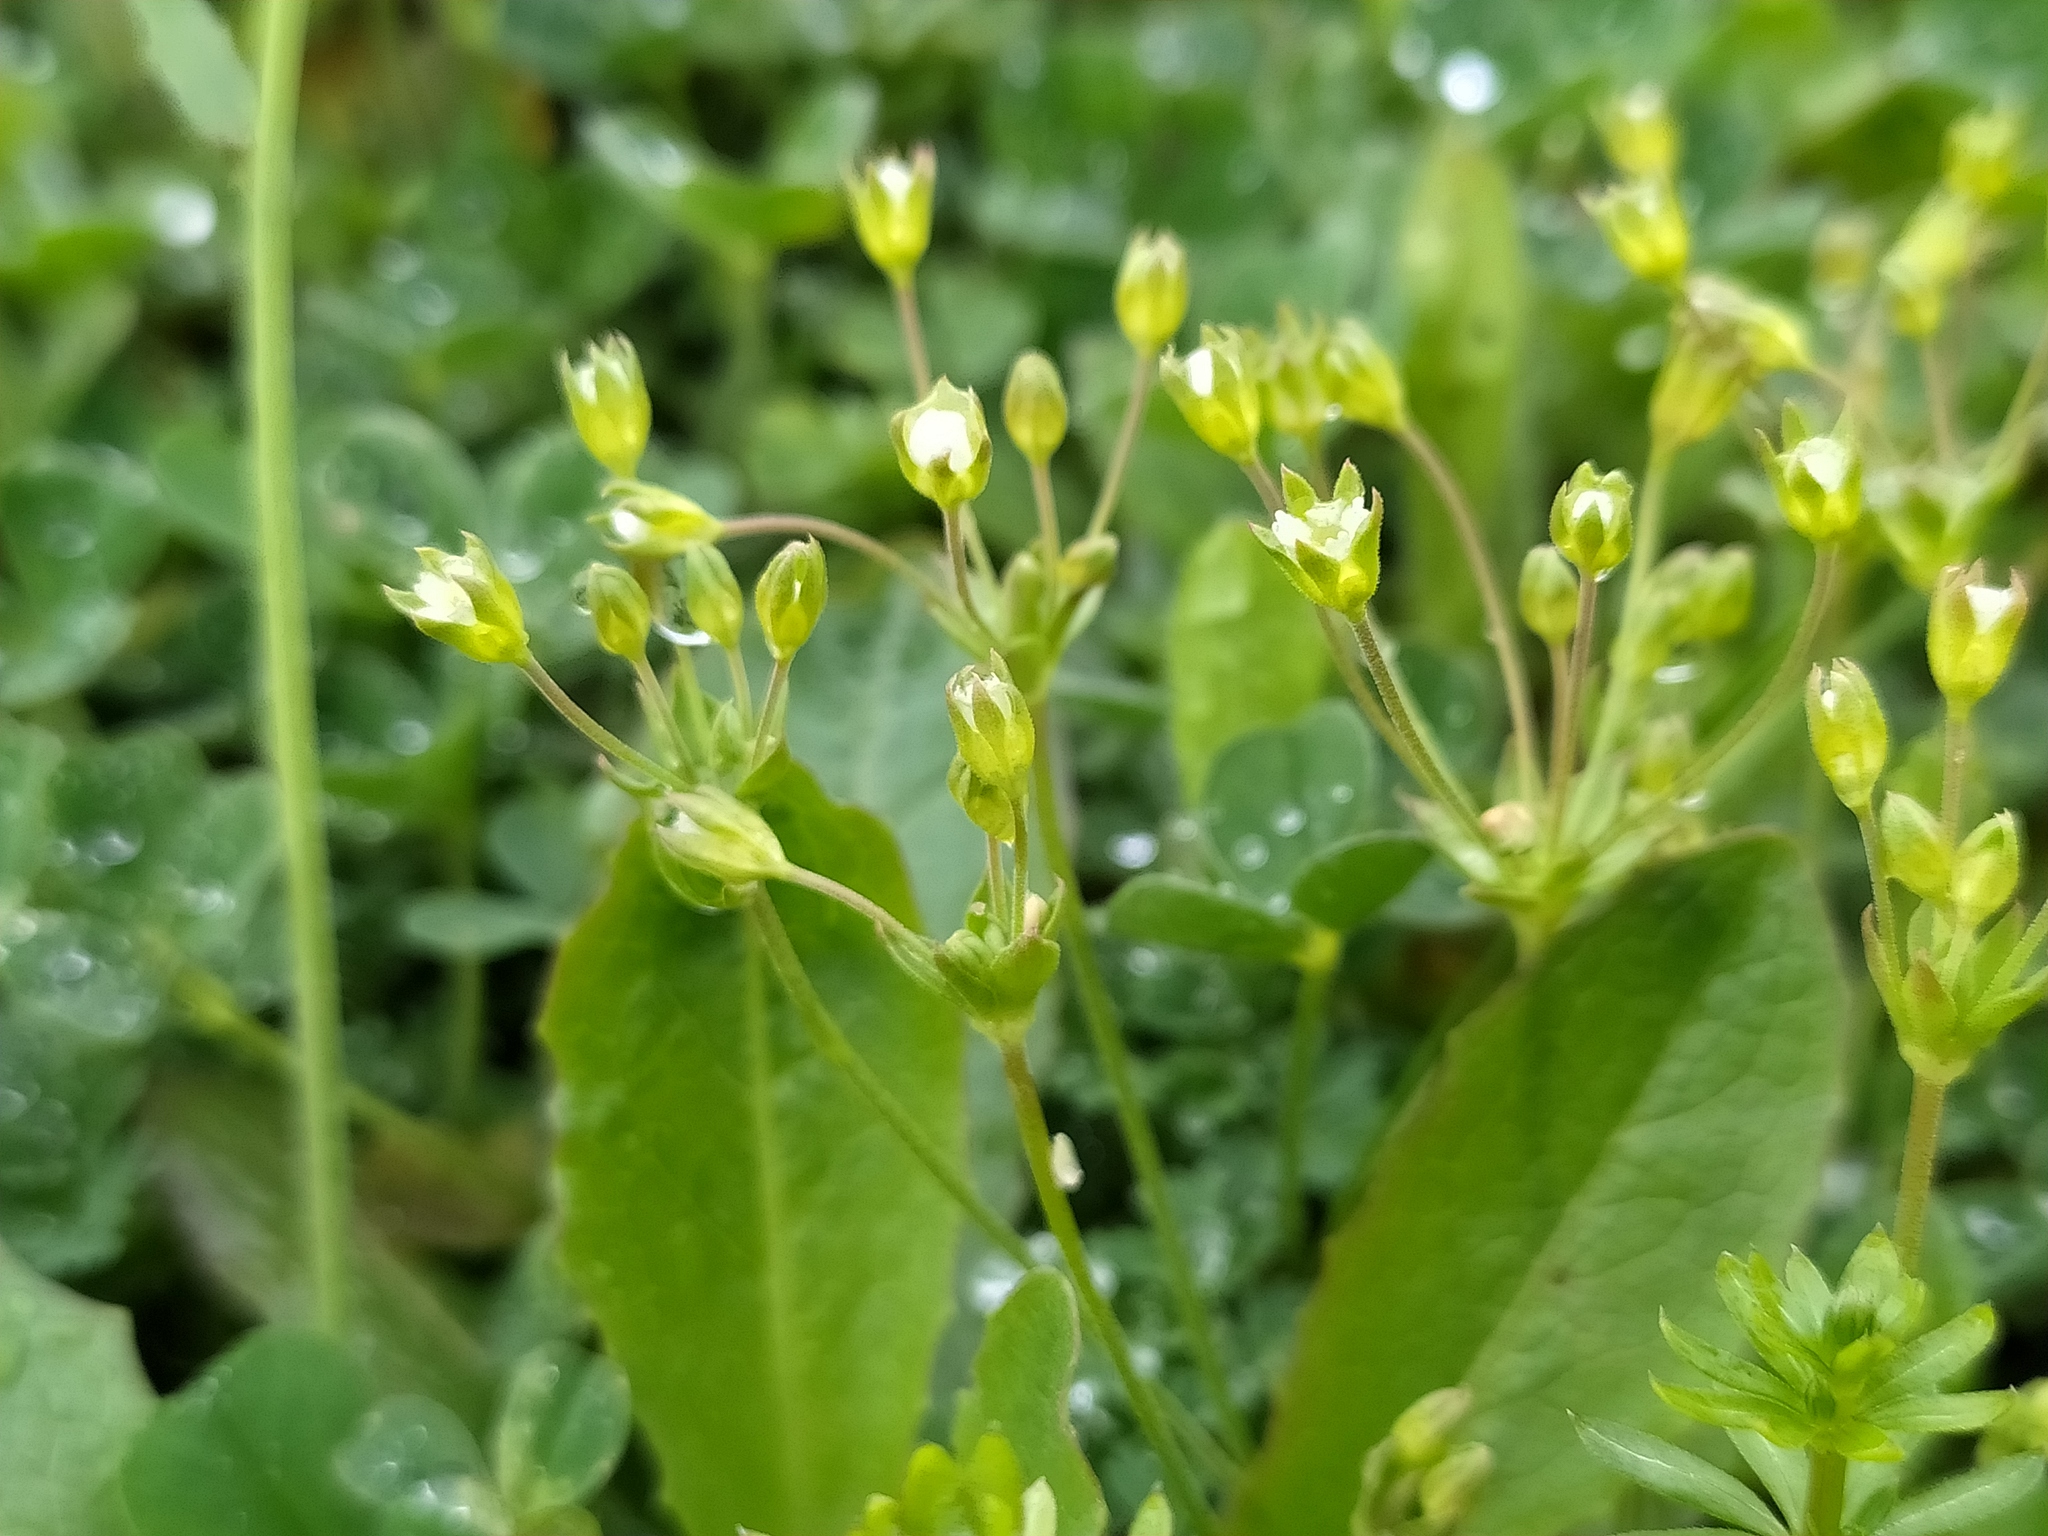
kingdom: Plantae
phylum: Tracheophyta
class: Magnoliopsida
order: Ericales
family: Primulaceae
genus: Androsace
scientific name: Androsace elongata
